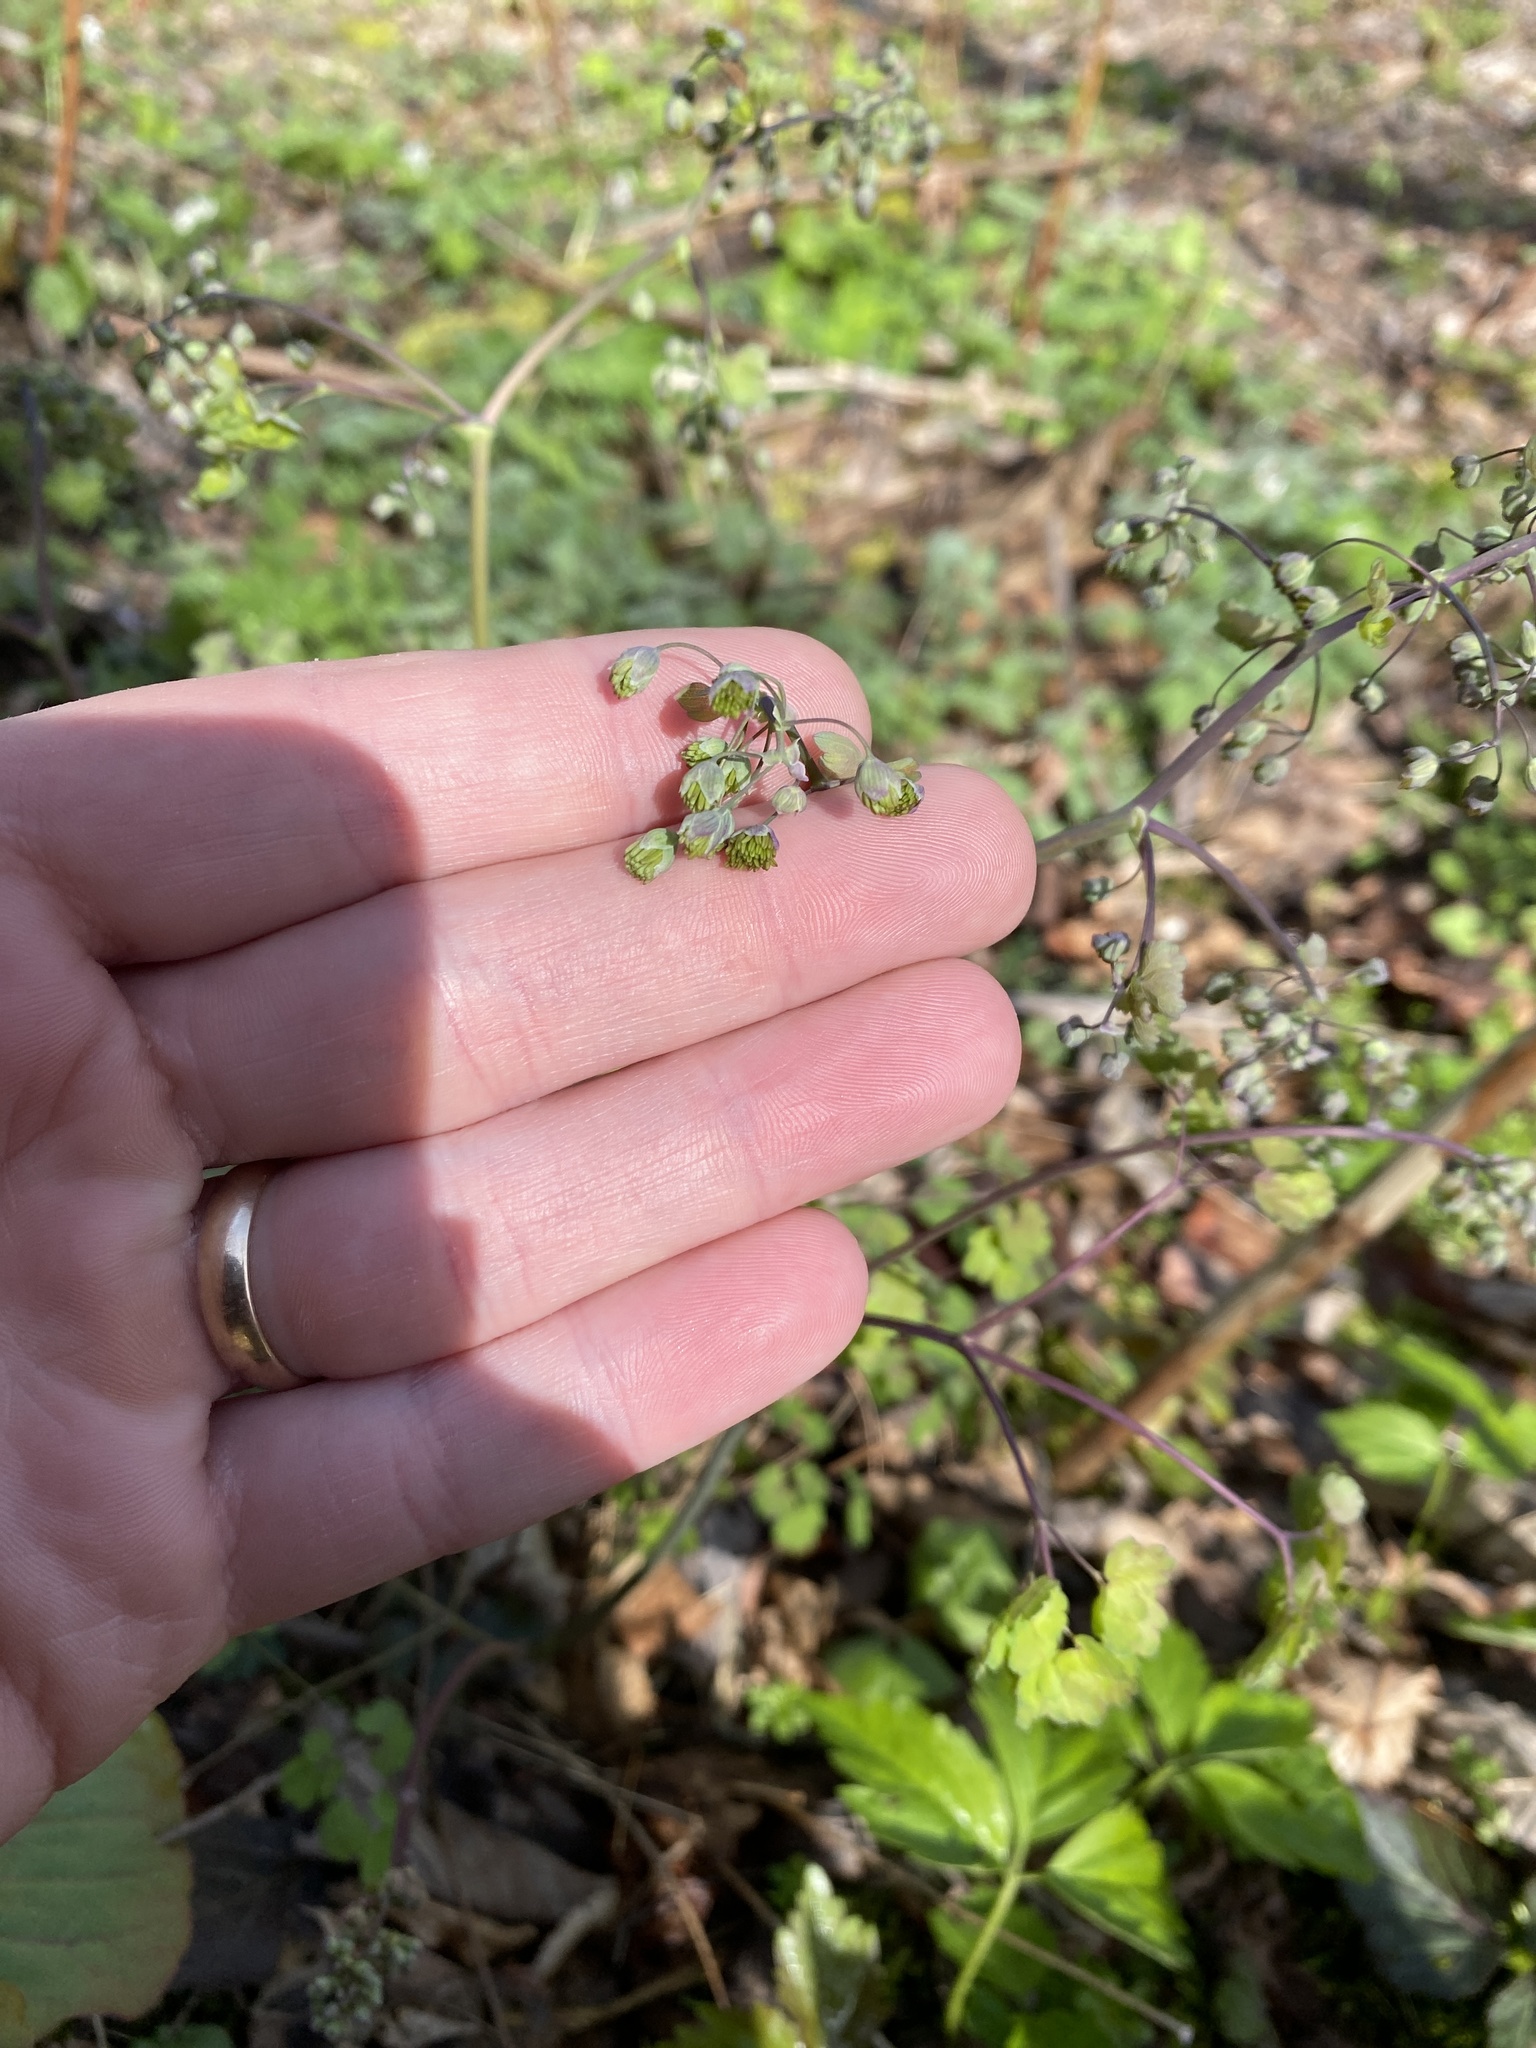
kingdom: Plantae
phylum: Tracheophyta
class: Magnoliopsida
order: Ranunculales
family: Ranunculaceae
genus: Thalictrum
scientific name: Thalictrum dioicum
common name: Early meadow-rue
